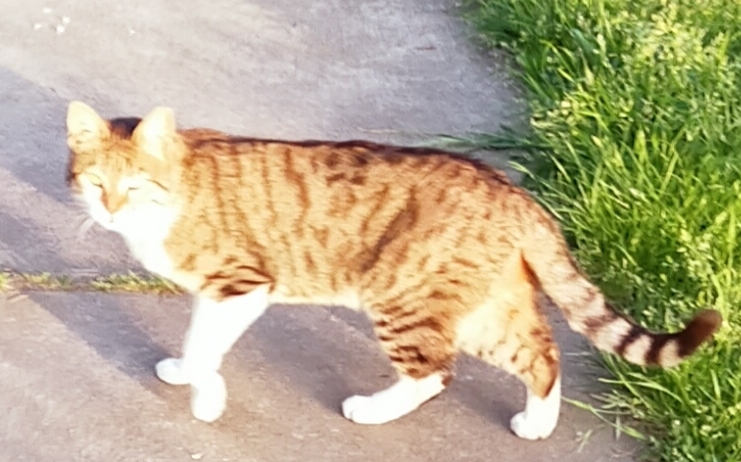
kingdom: Animalia
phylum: Chordata
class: Mammalia
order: Carnivora
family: Felidae
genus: Felis
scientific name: Felis catus
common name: Domestic cat
